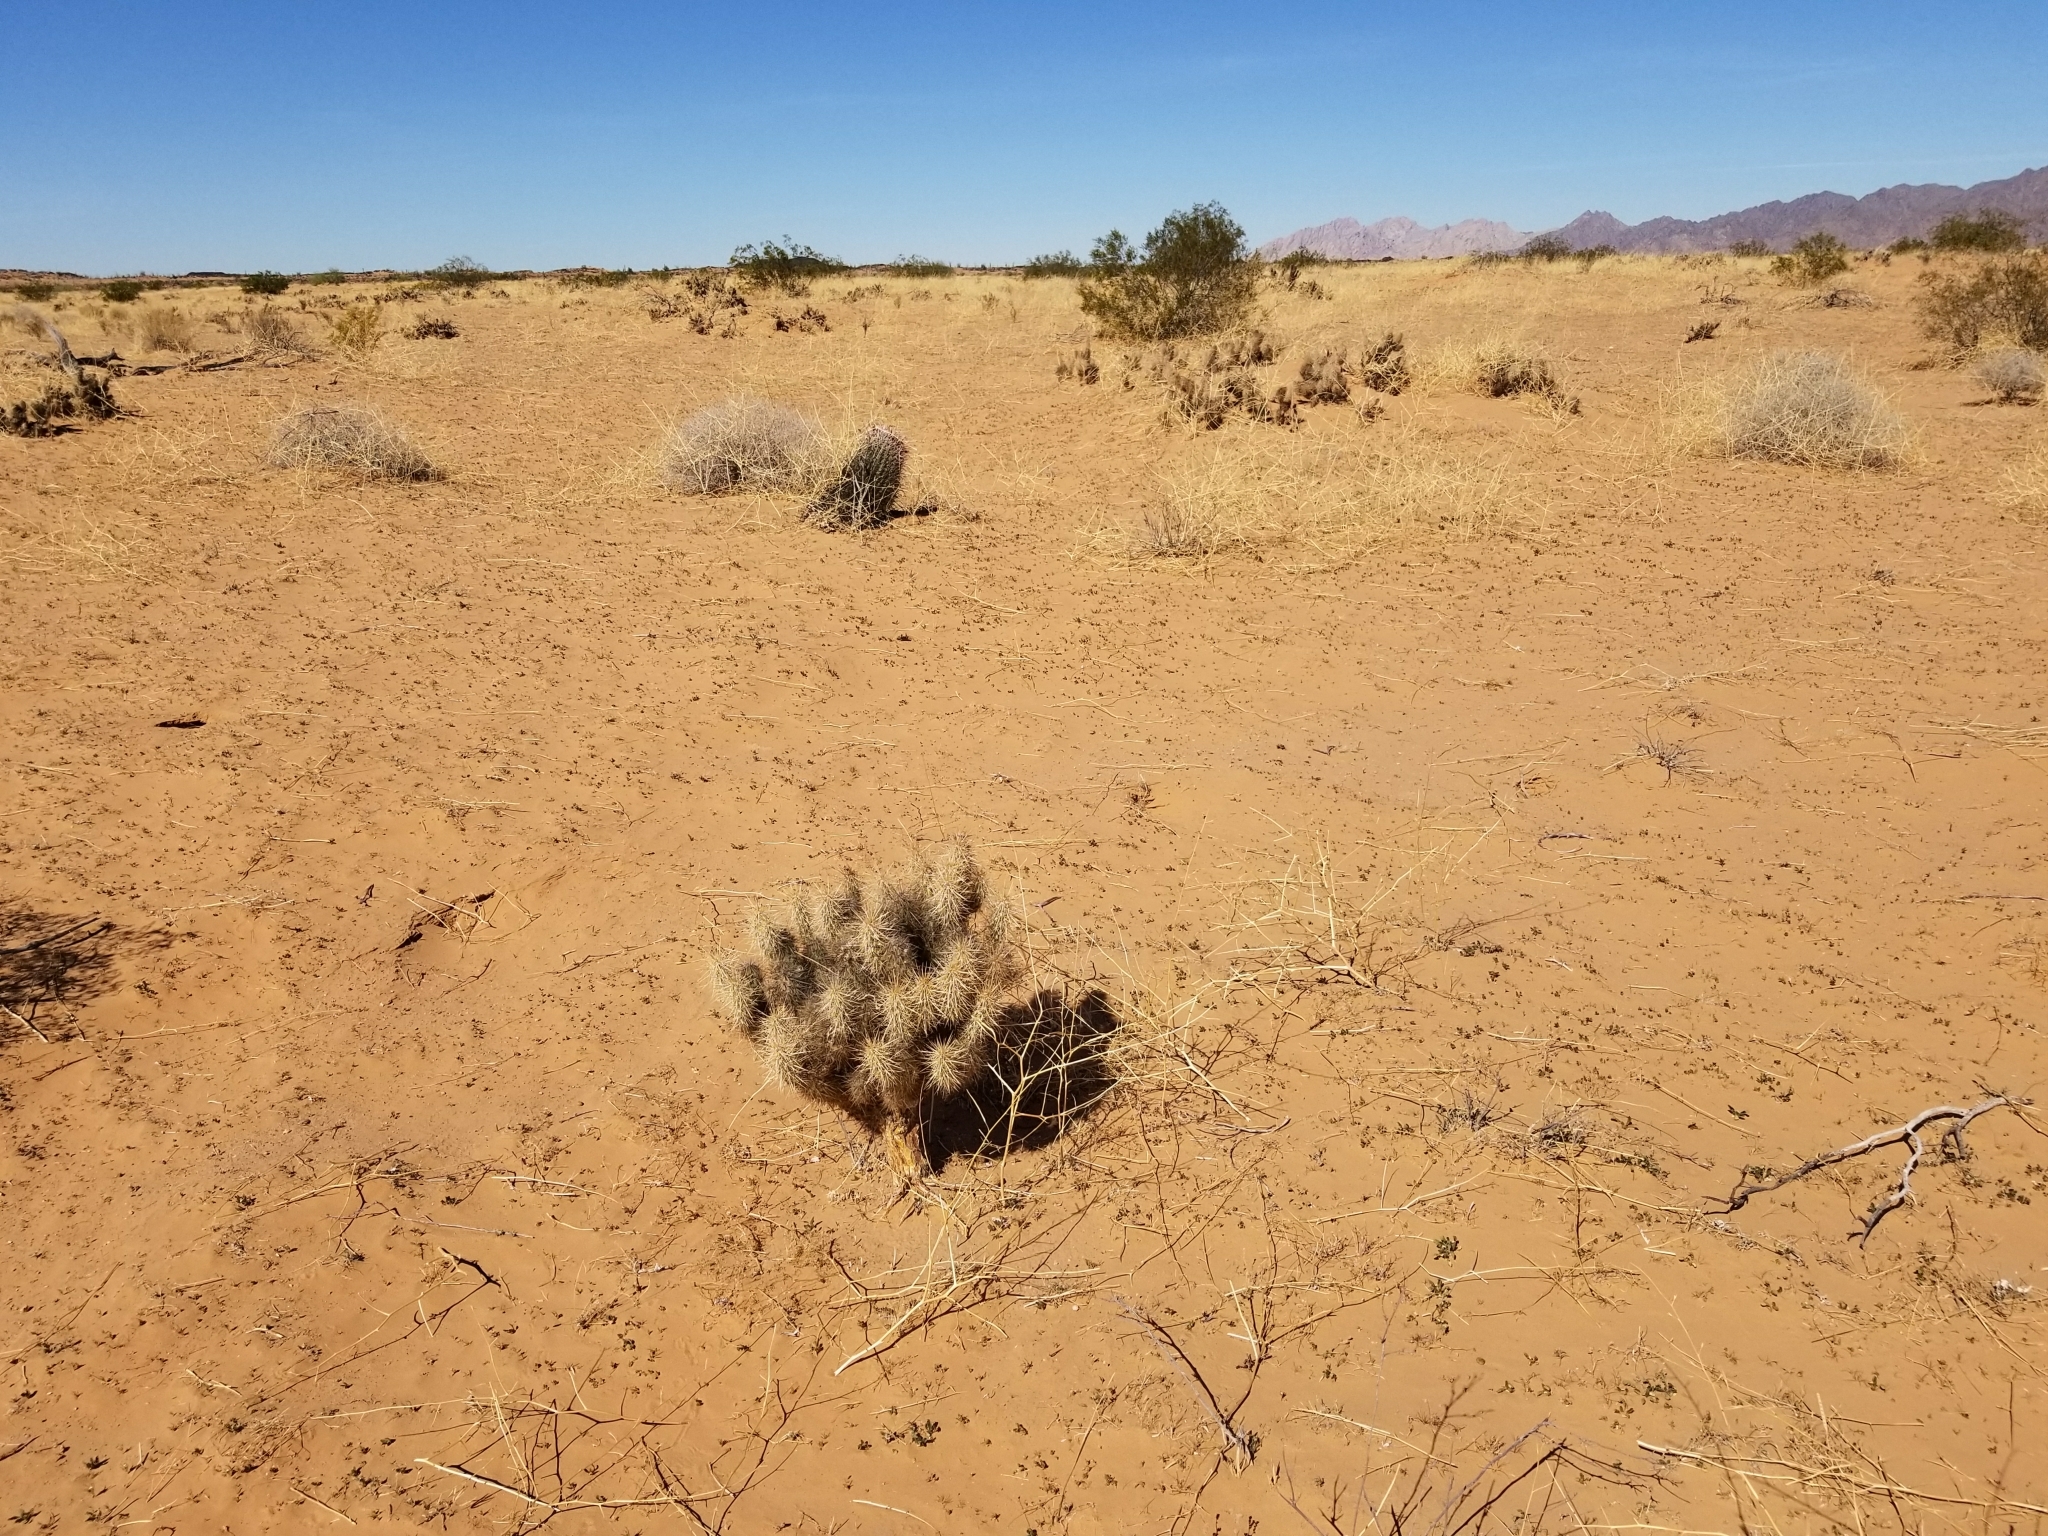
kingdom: Plantae
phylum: Tracheophyta
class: Magnoliopsida
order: Caryophyllales
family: Cactaceae
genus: Grusonia
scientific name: Grusonia kunzei
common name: Wright's club cholla
